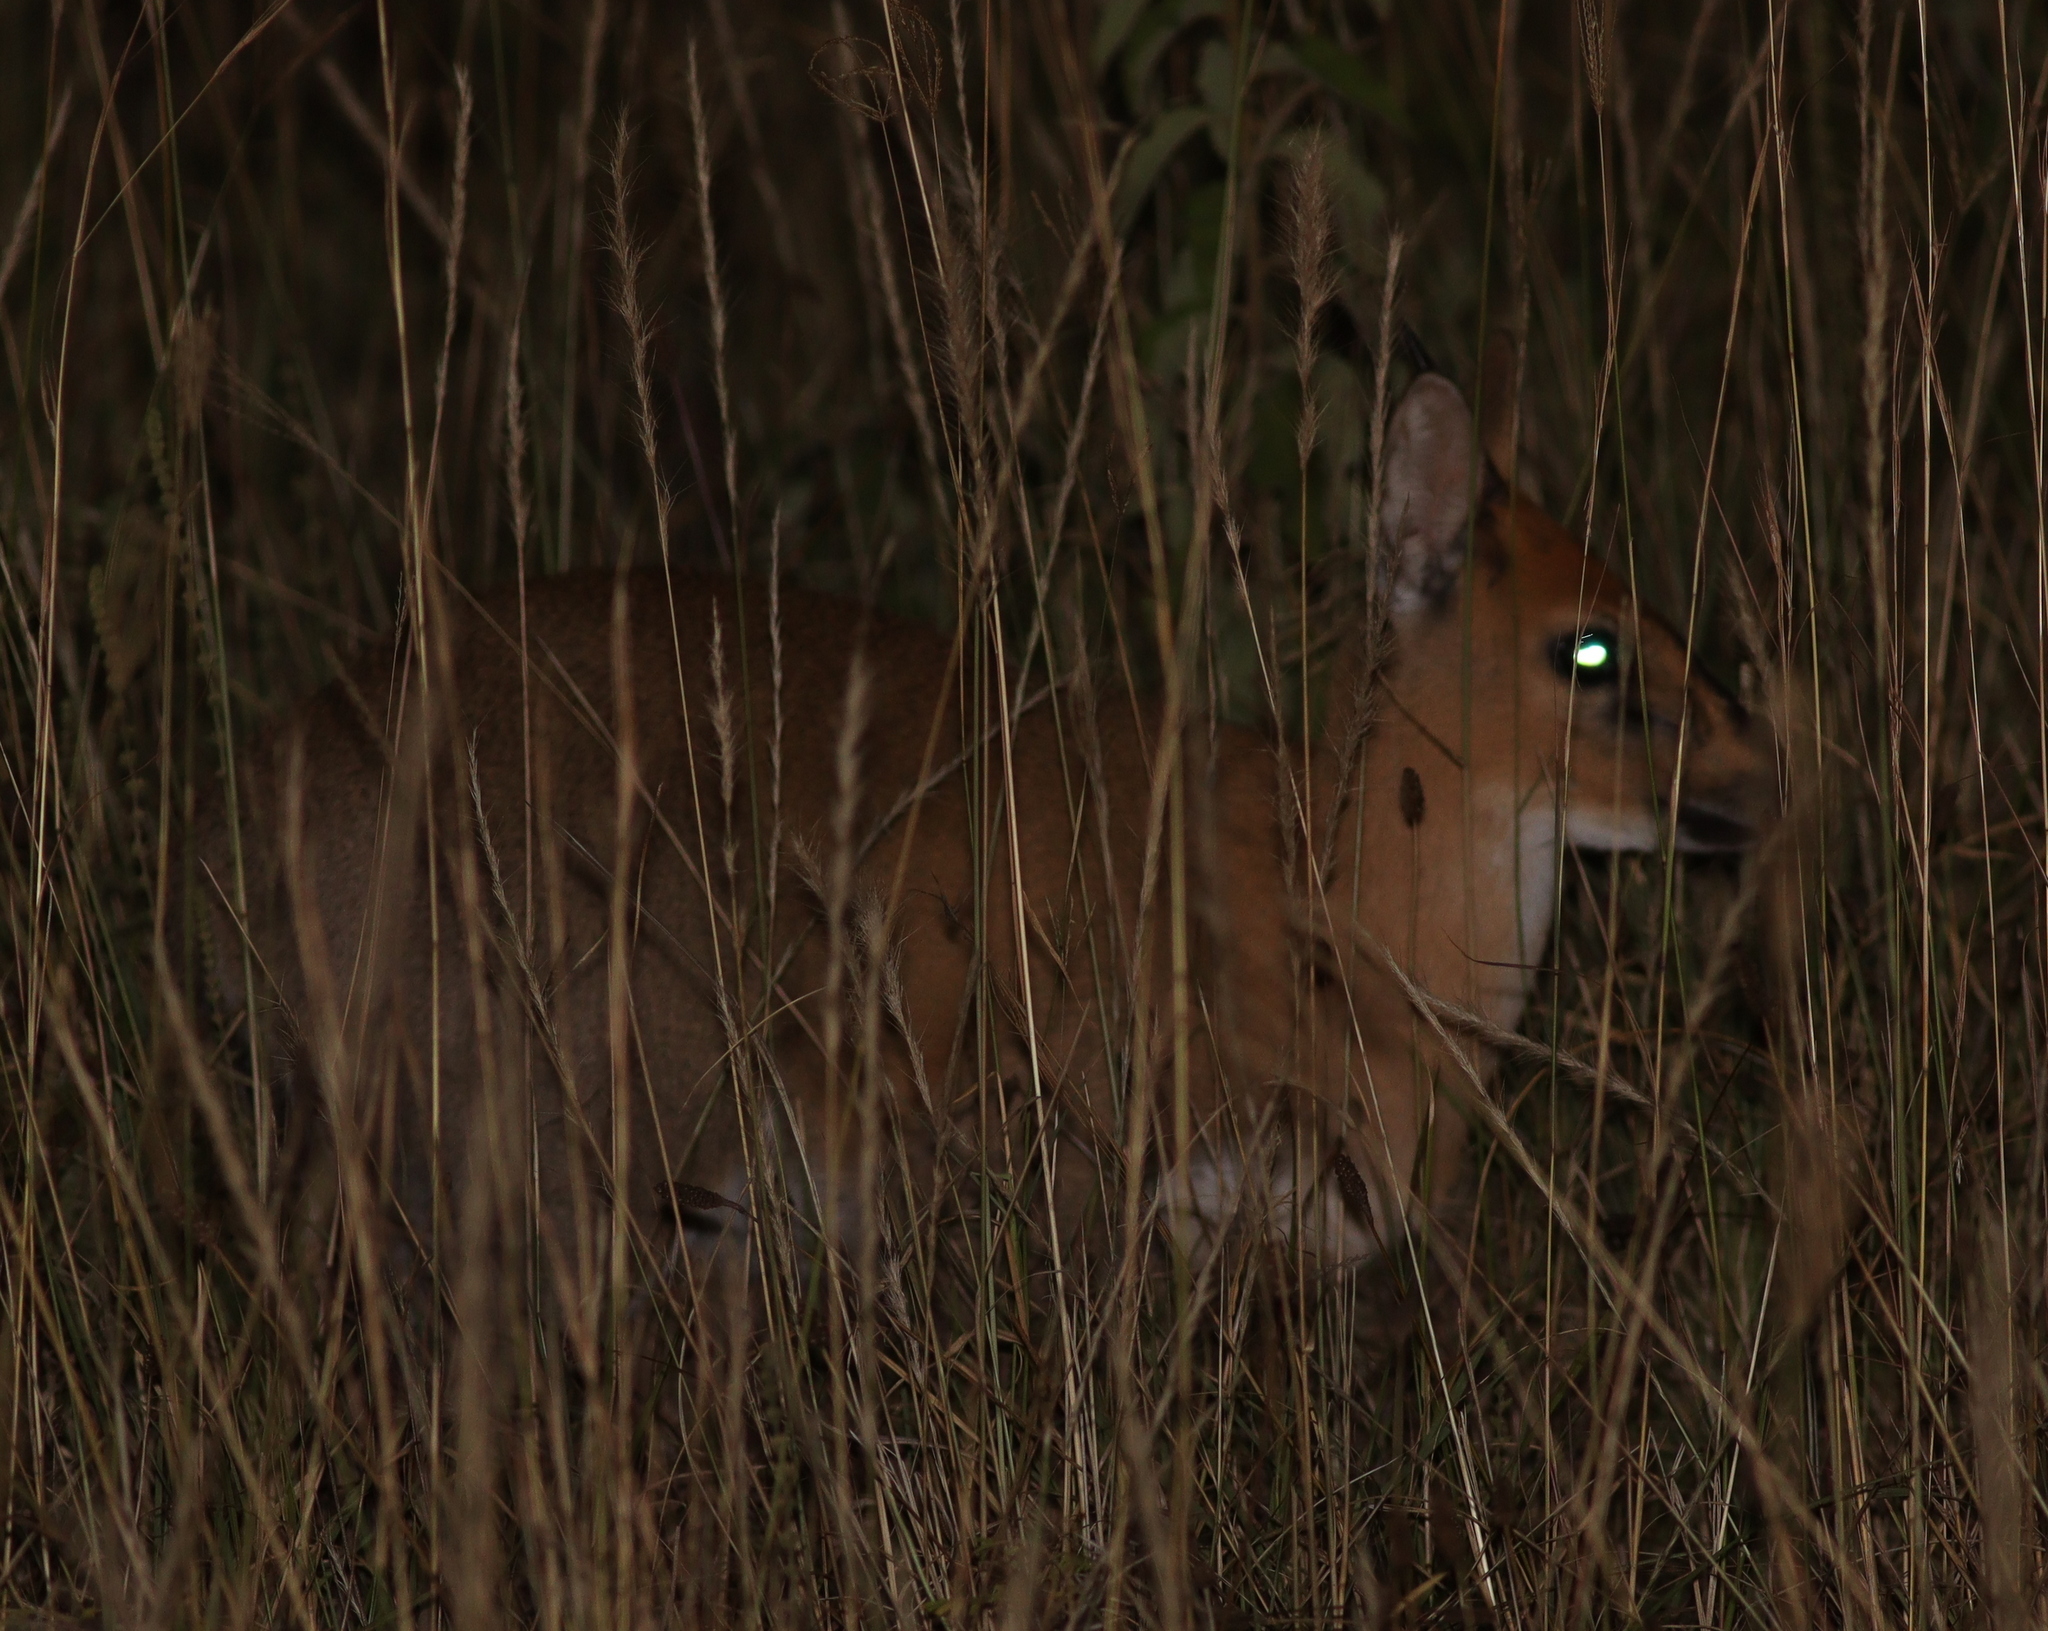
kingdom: Animalia
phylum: Chordata
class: Mammalia
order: Artiodactyla
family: Bovidae
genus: Sylvicapra
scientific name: Sylvicapra grimmia
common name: Bush duiker
